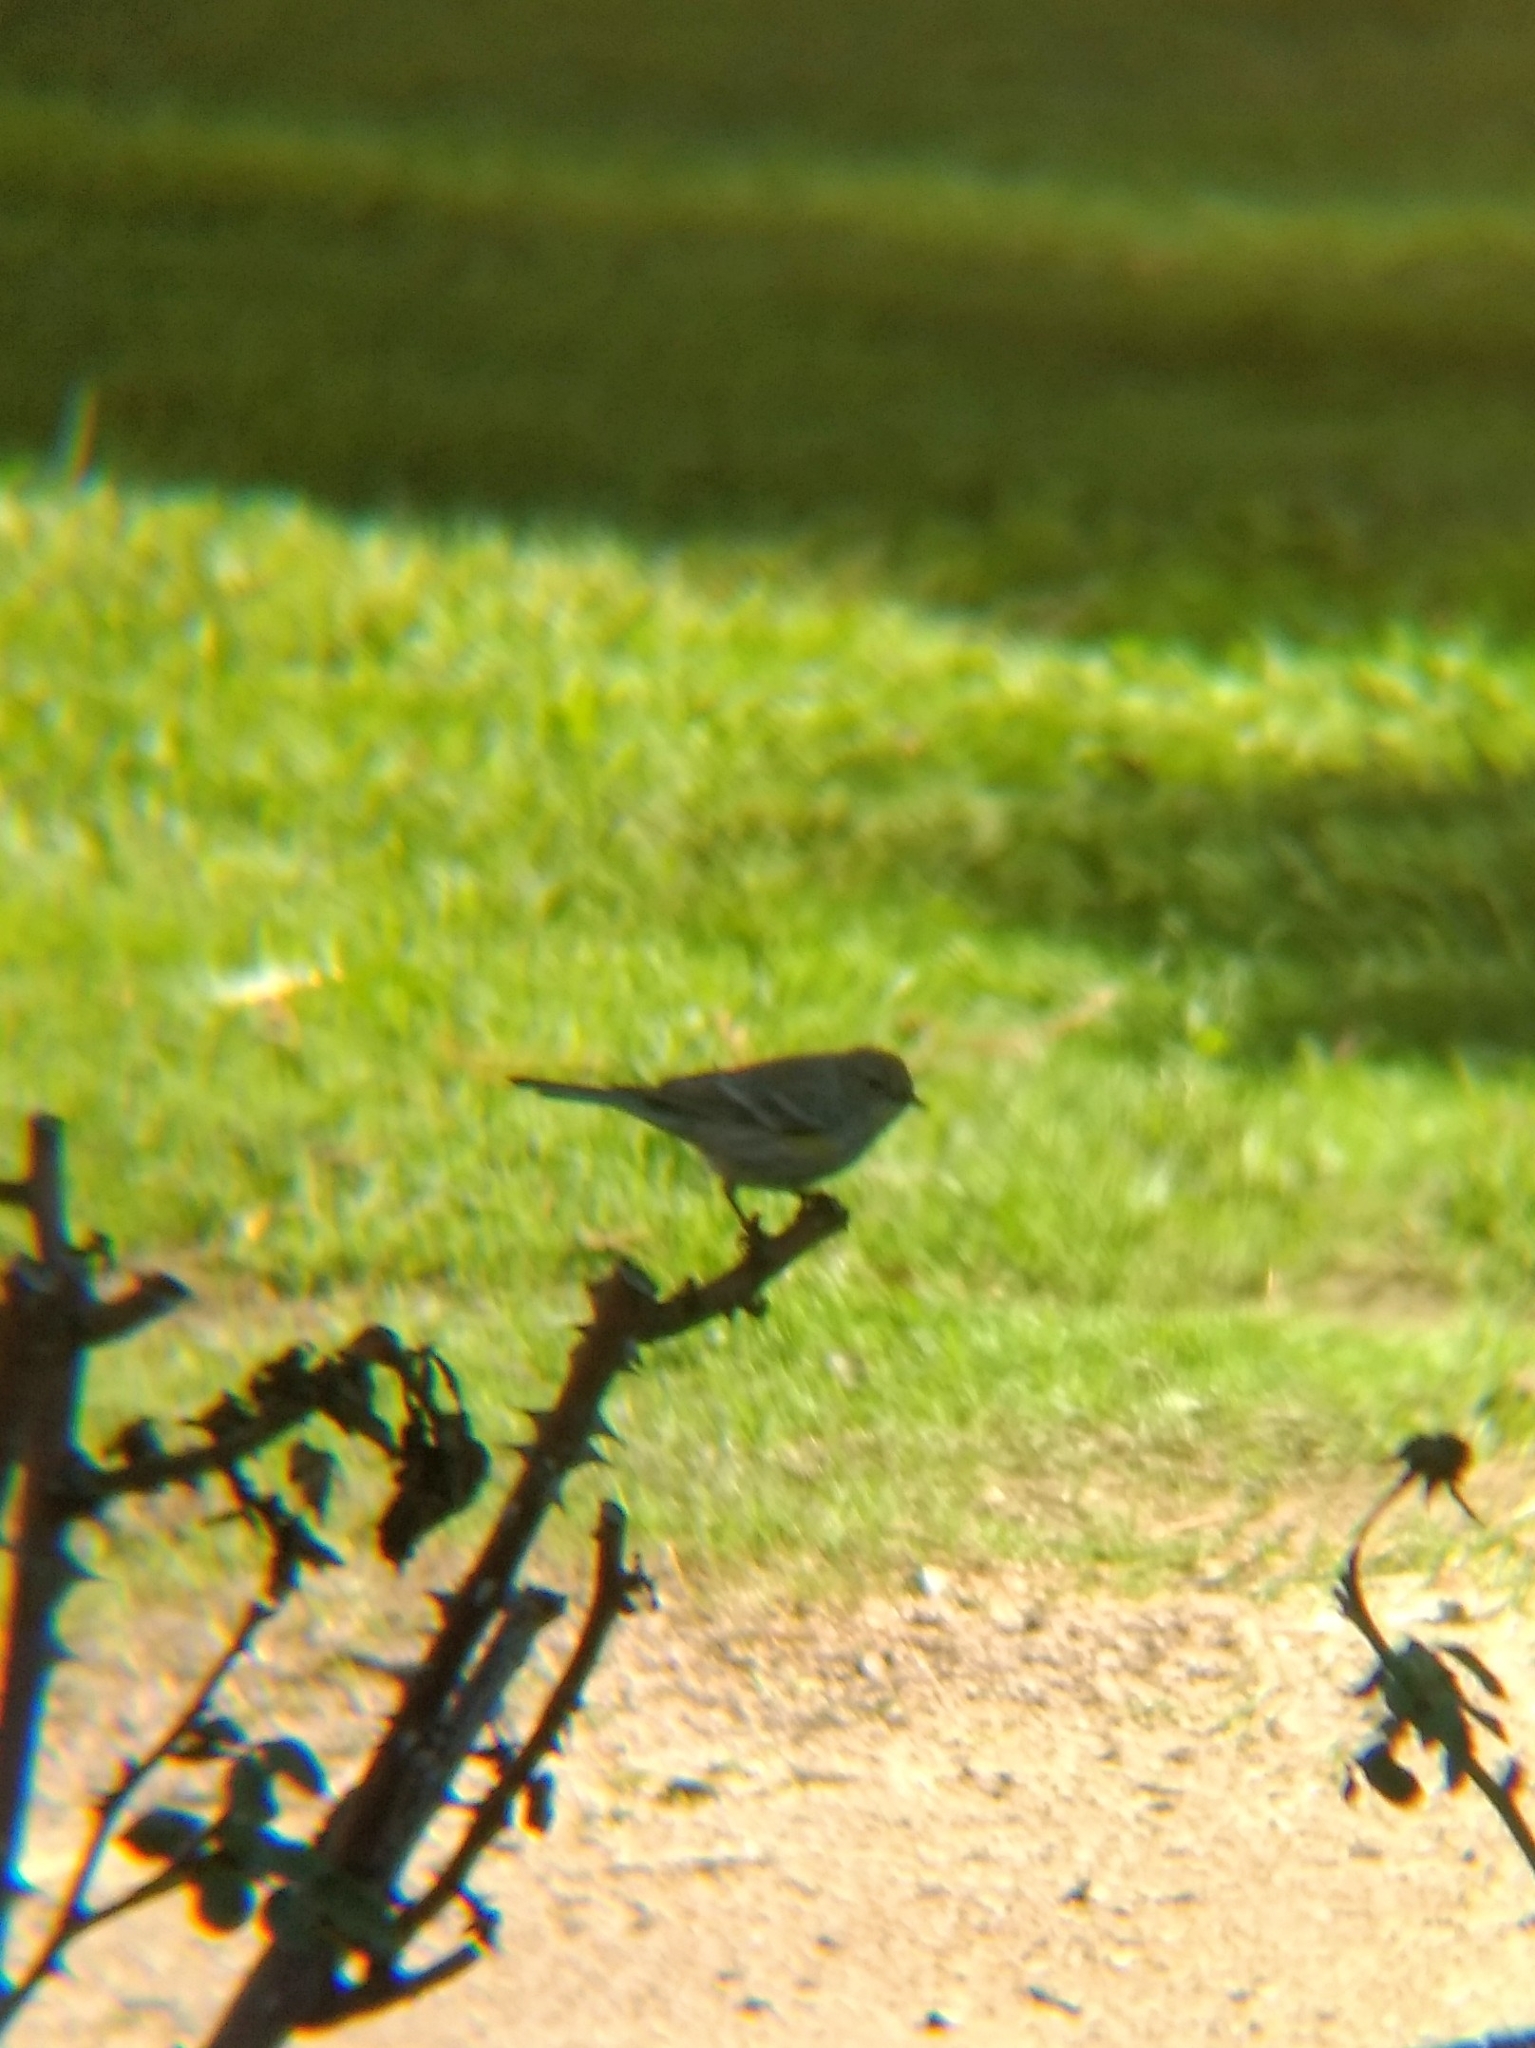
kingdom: Animalia
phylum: Chordata
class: Aves
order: Passeriformes
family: Parulidae
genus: Setophaga
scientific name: Setophaga coronata
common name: Myrtle warbler
